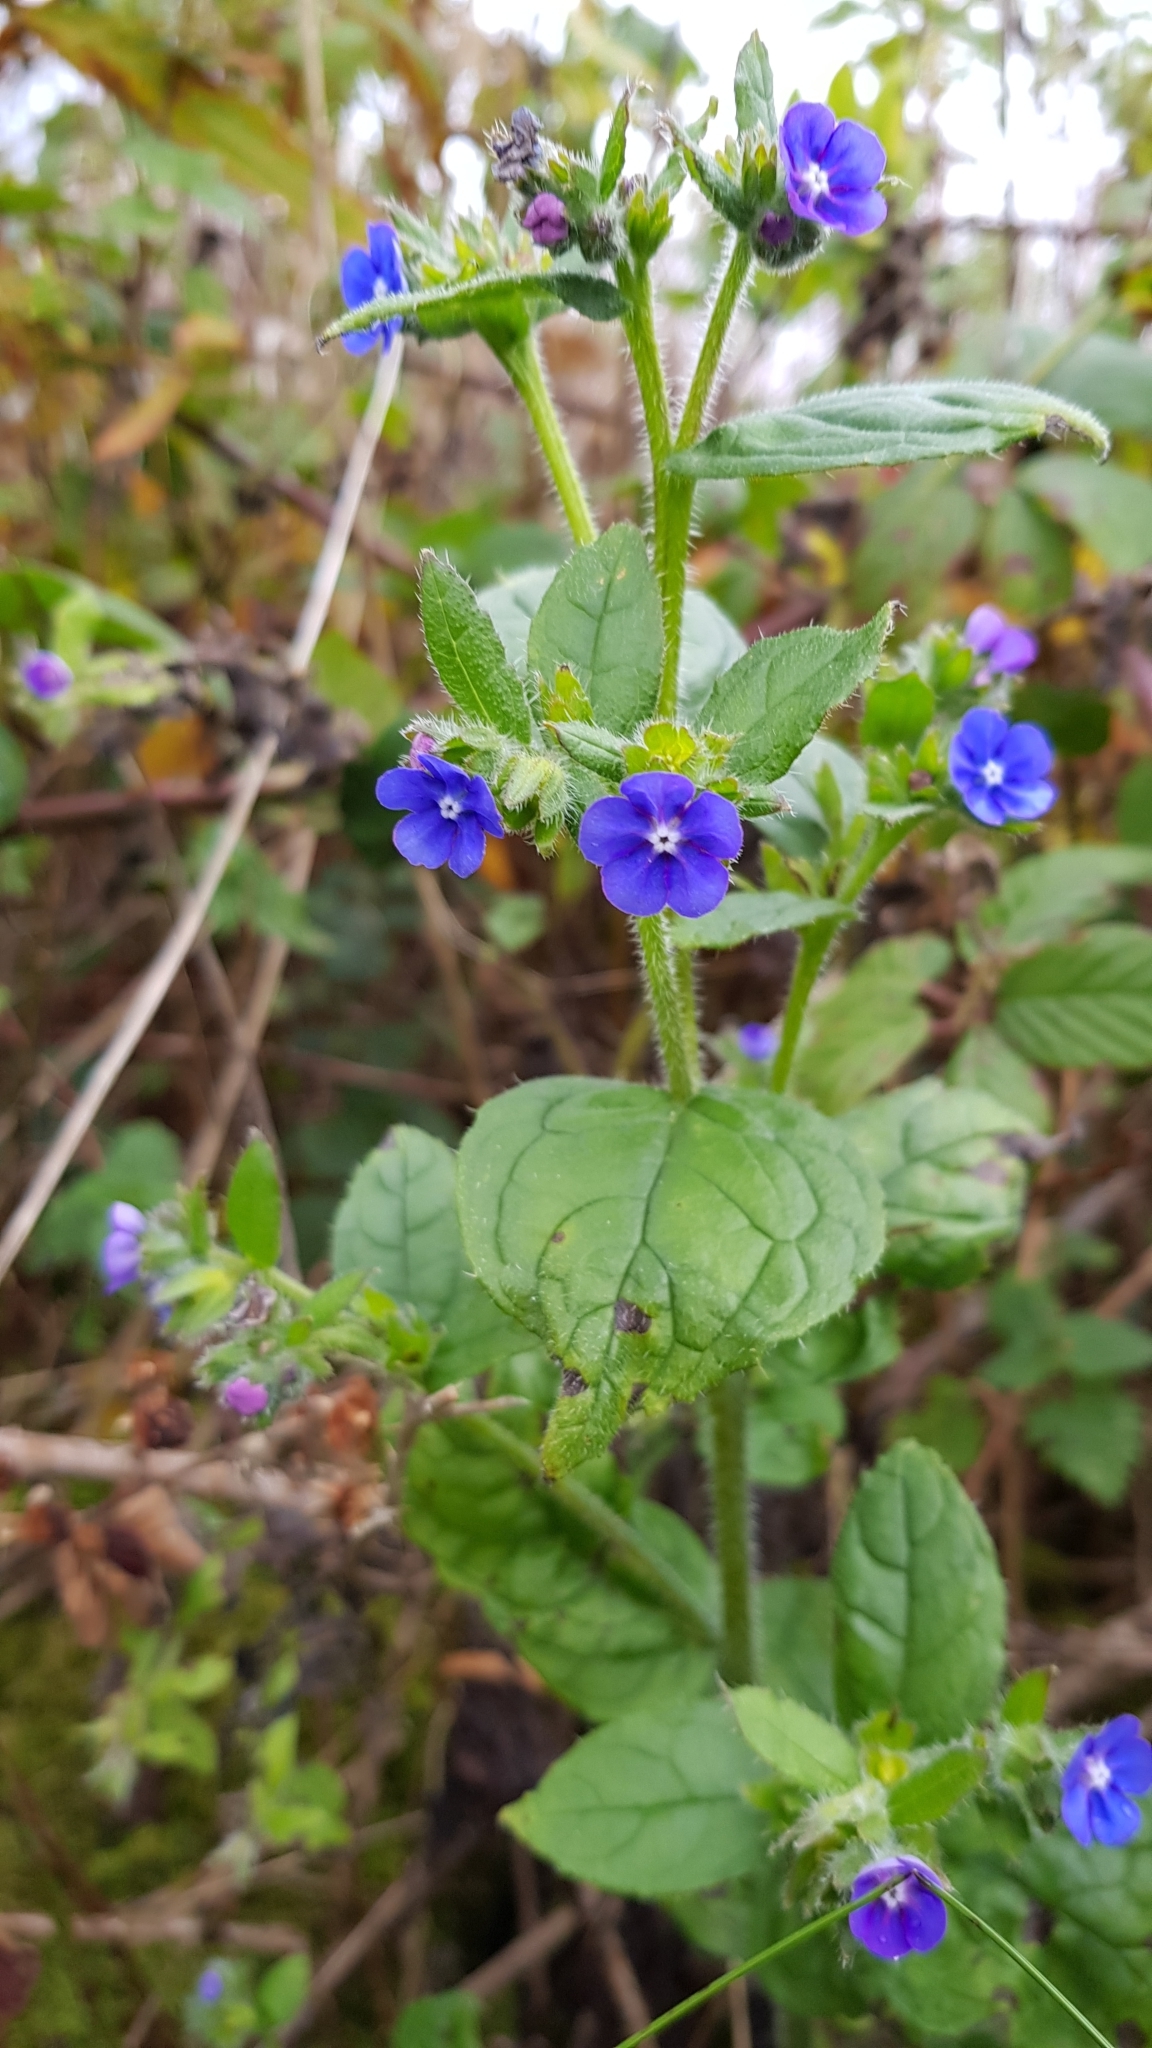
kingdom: Plantae
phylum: Tracheophyta
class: Magnoliopsida
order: Boraginales
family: Boraginaceae
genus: Pentaglottis
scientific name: Pentaglottis sempervirens
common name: Green alkanet
